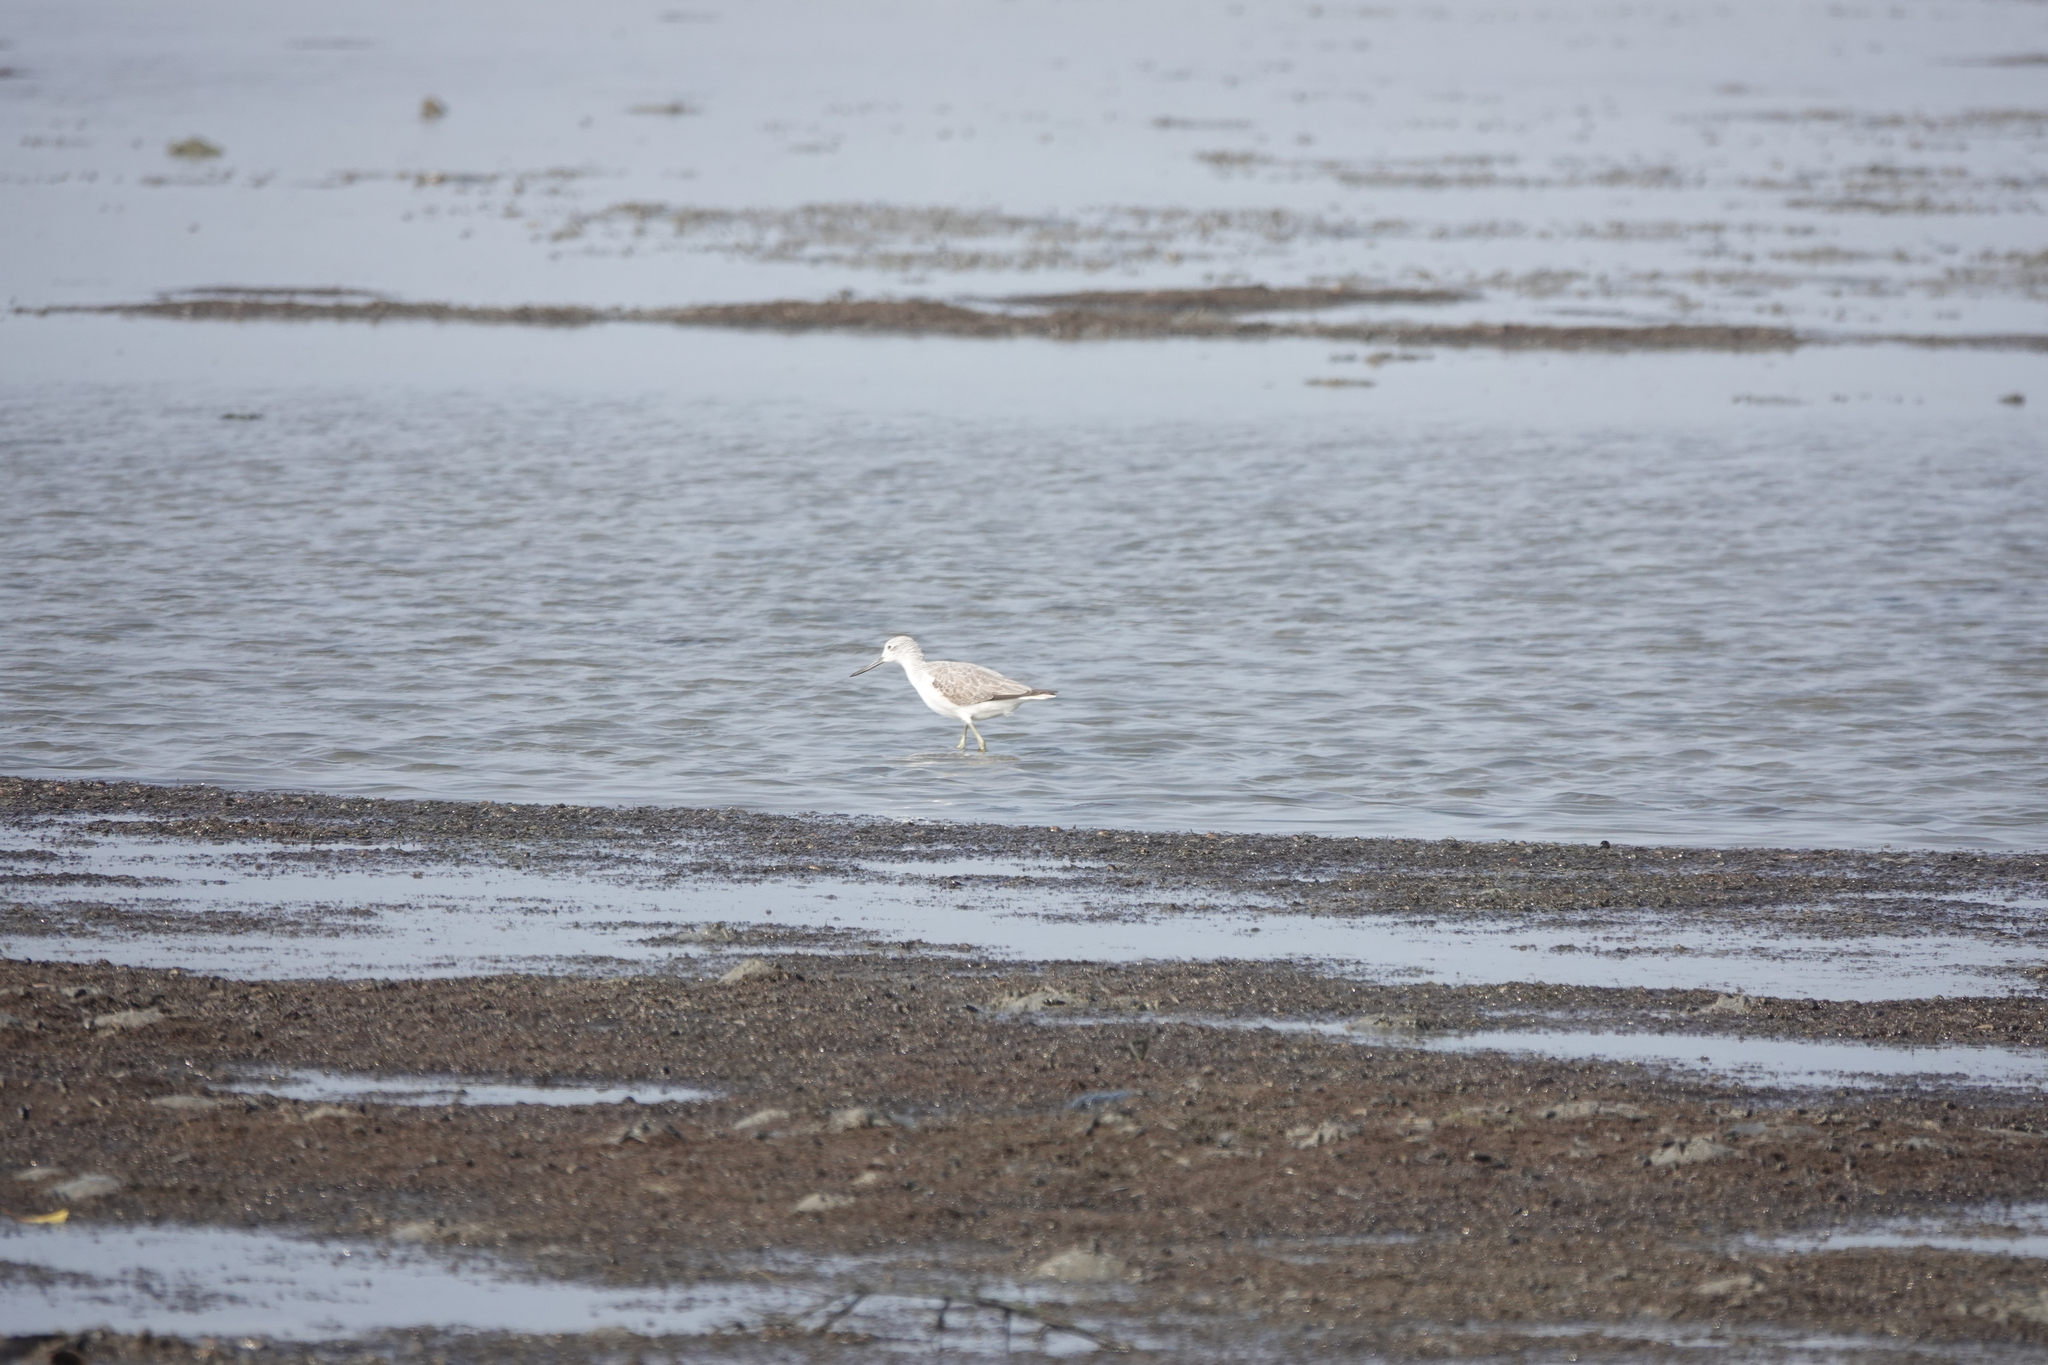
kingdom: Animalia
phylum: Chordata
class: Aves
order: Charadriiformes
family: Scolopacidae
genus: Tringa
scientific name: Tringa nebularia
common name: Common greenshank
